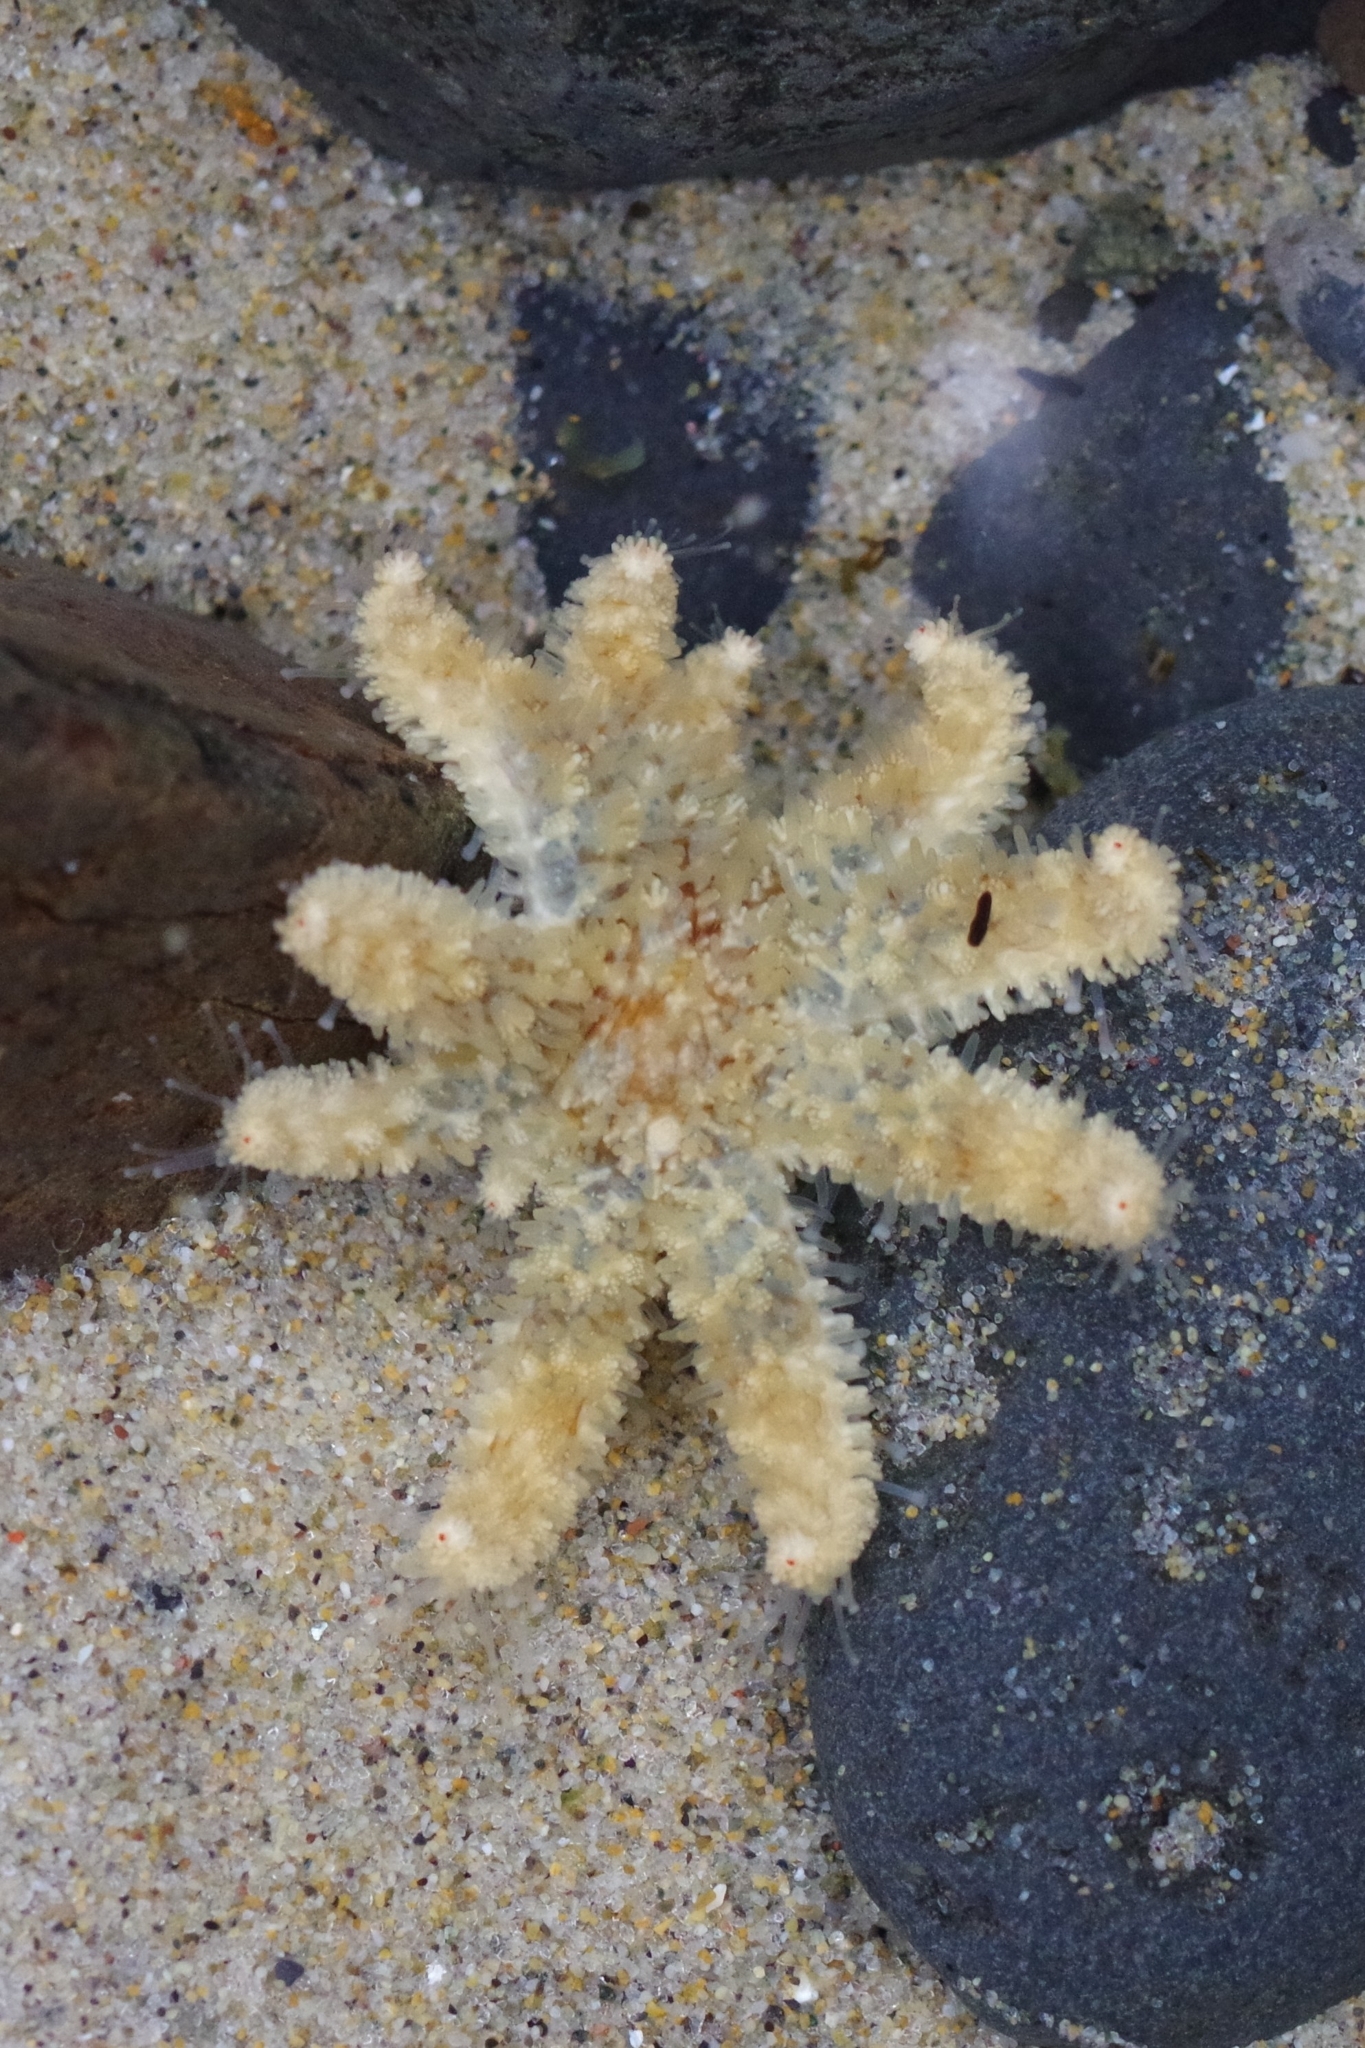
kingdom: Animalia
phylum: Echinodermata
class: Asteroidea
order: Forcipulatida
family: Asteriidae
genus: Pycnopodia
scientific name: Pycnopodia helianthoides
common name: Rag mop
